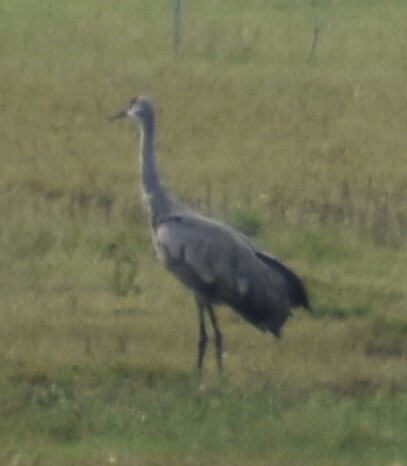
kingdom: Animalia
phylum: Chordata
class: Aves
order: Gruiformes
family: Gruidae
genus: Grus
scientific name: Grus canadensis
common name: Sandhill crane
